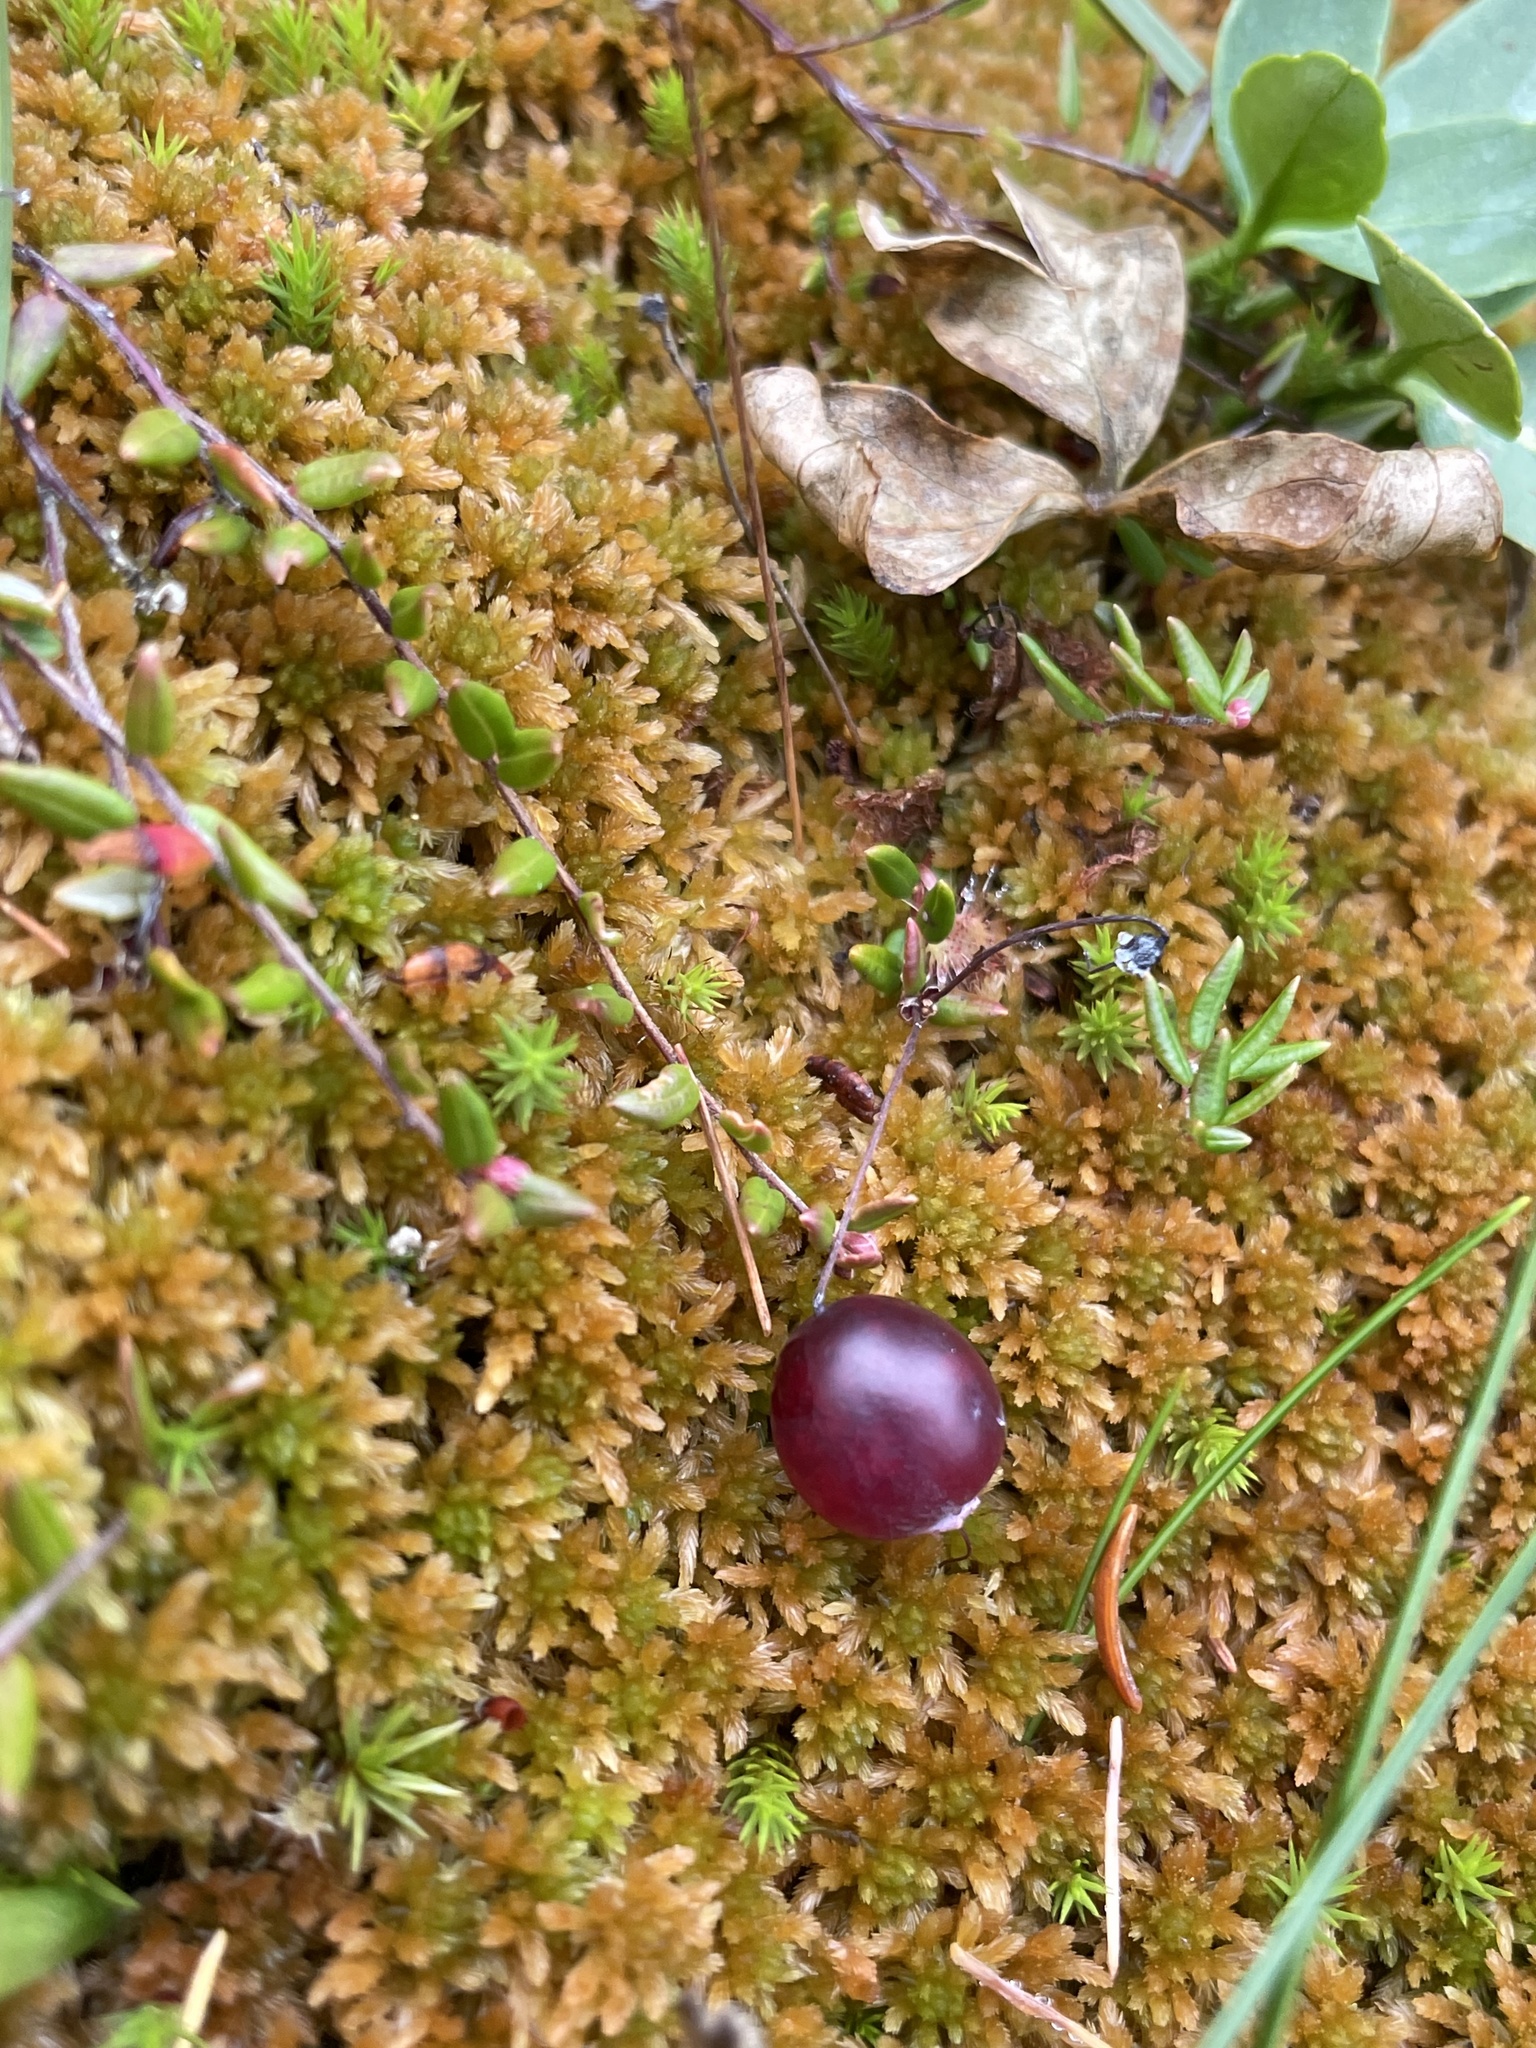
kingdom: Plantae
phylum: Tracheophyta
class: Magnoliopsida
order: Ericales
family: Ericaceae
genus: Vaccinium
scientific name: Vaccinium oxycoccos
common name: Cranberry
